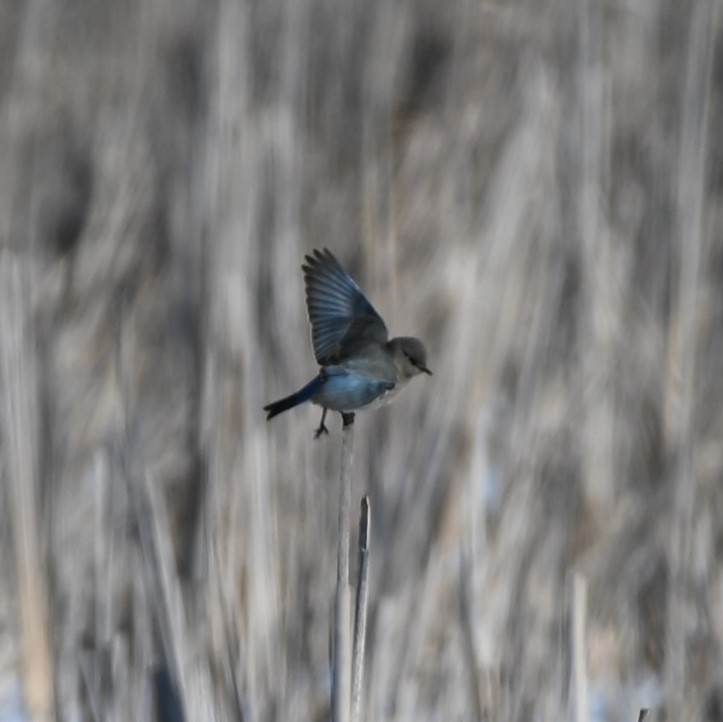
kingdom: Animalia
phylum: Chordata
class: Aves
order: Passeriformes
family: Turdidae
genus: Sialia
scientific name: Sialia currucoides
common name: Mountain bluebird
